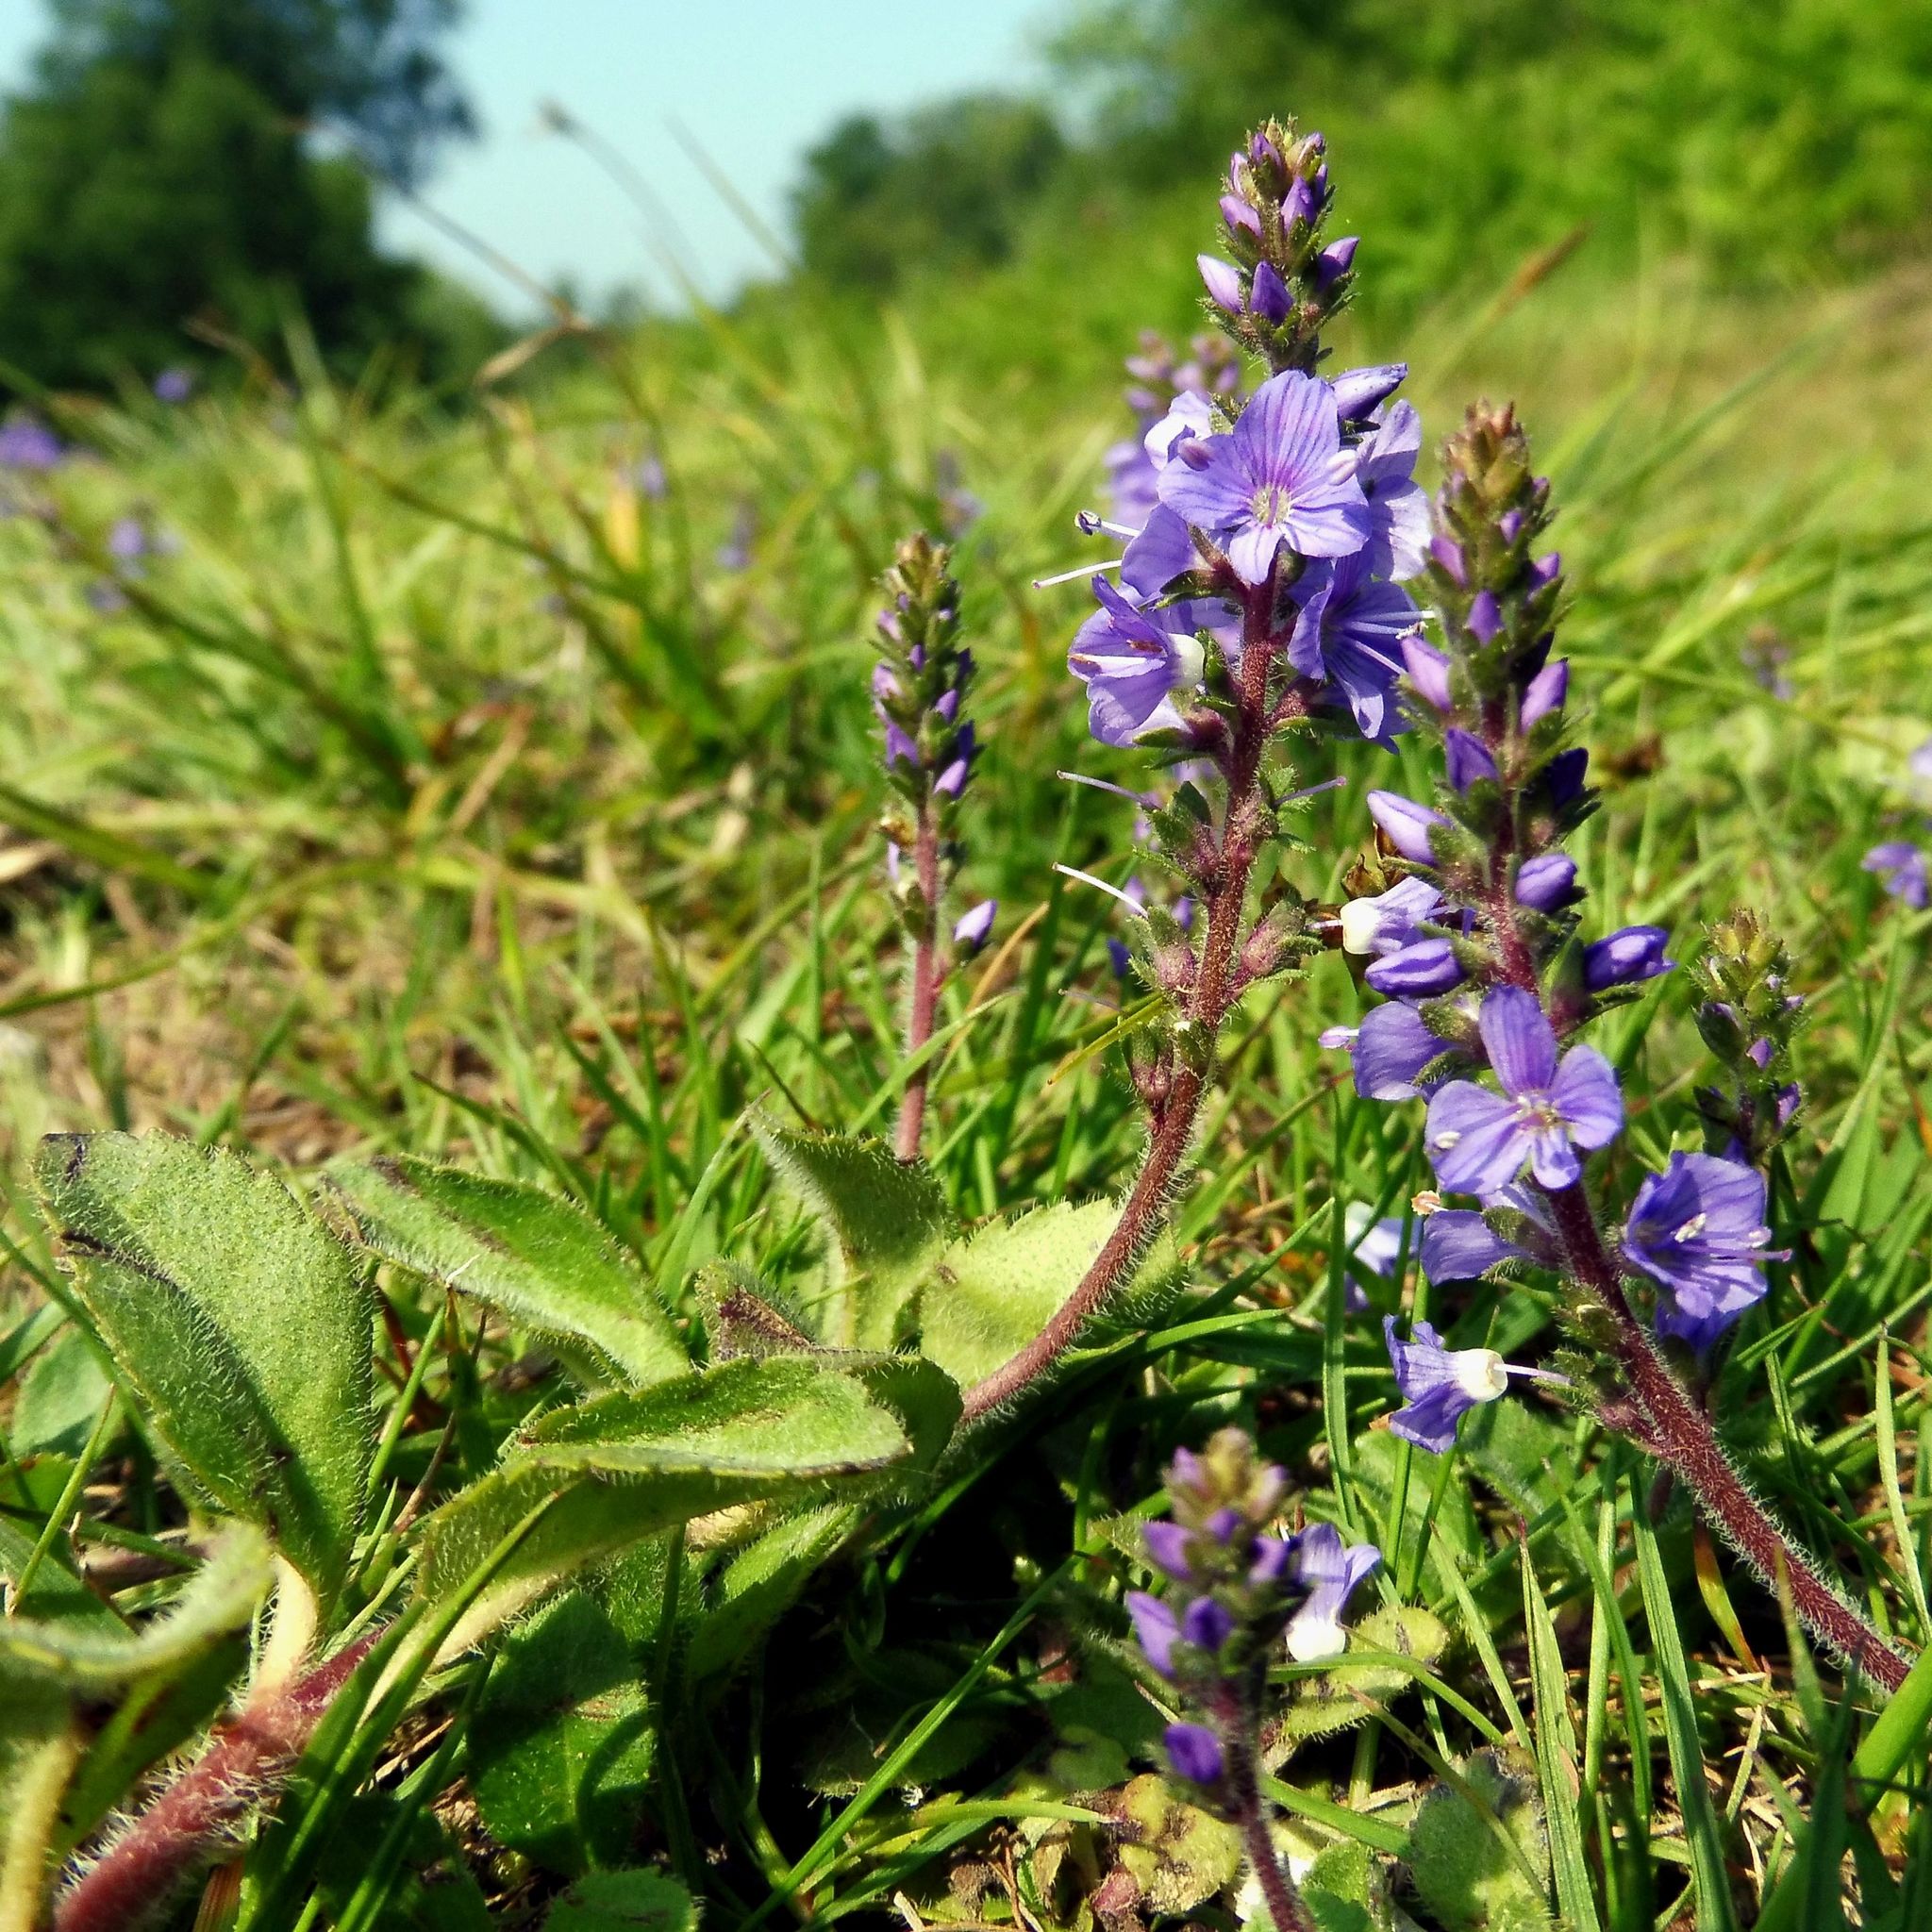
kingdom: Plantae
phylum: Tracheophyta
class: Magnoliopsida
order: Lamiales
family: Plantaginaceae
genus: Veronica
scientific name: Veronica officinalis
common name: Common speedwell
